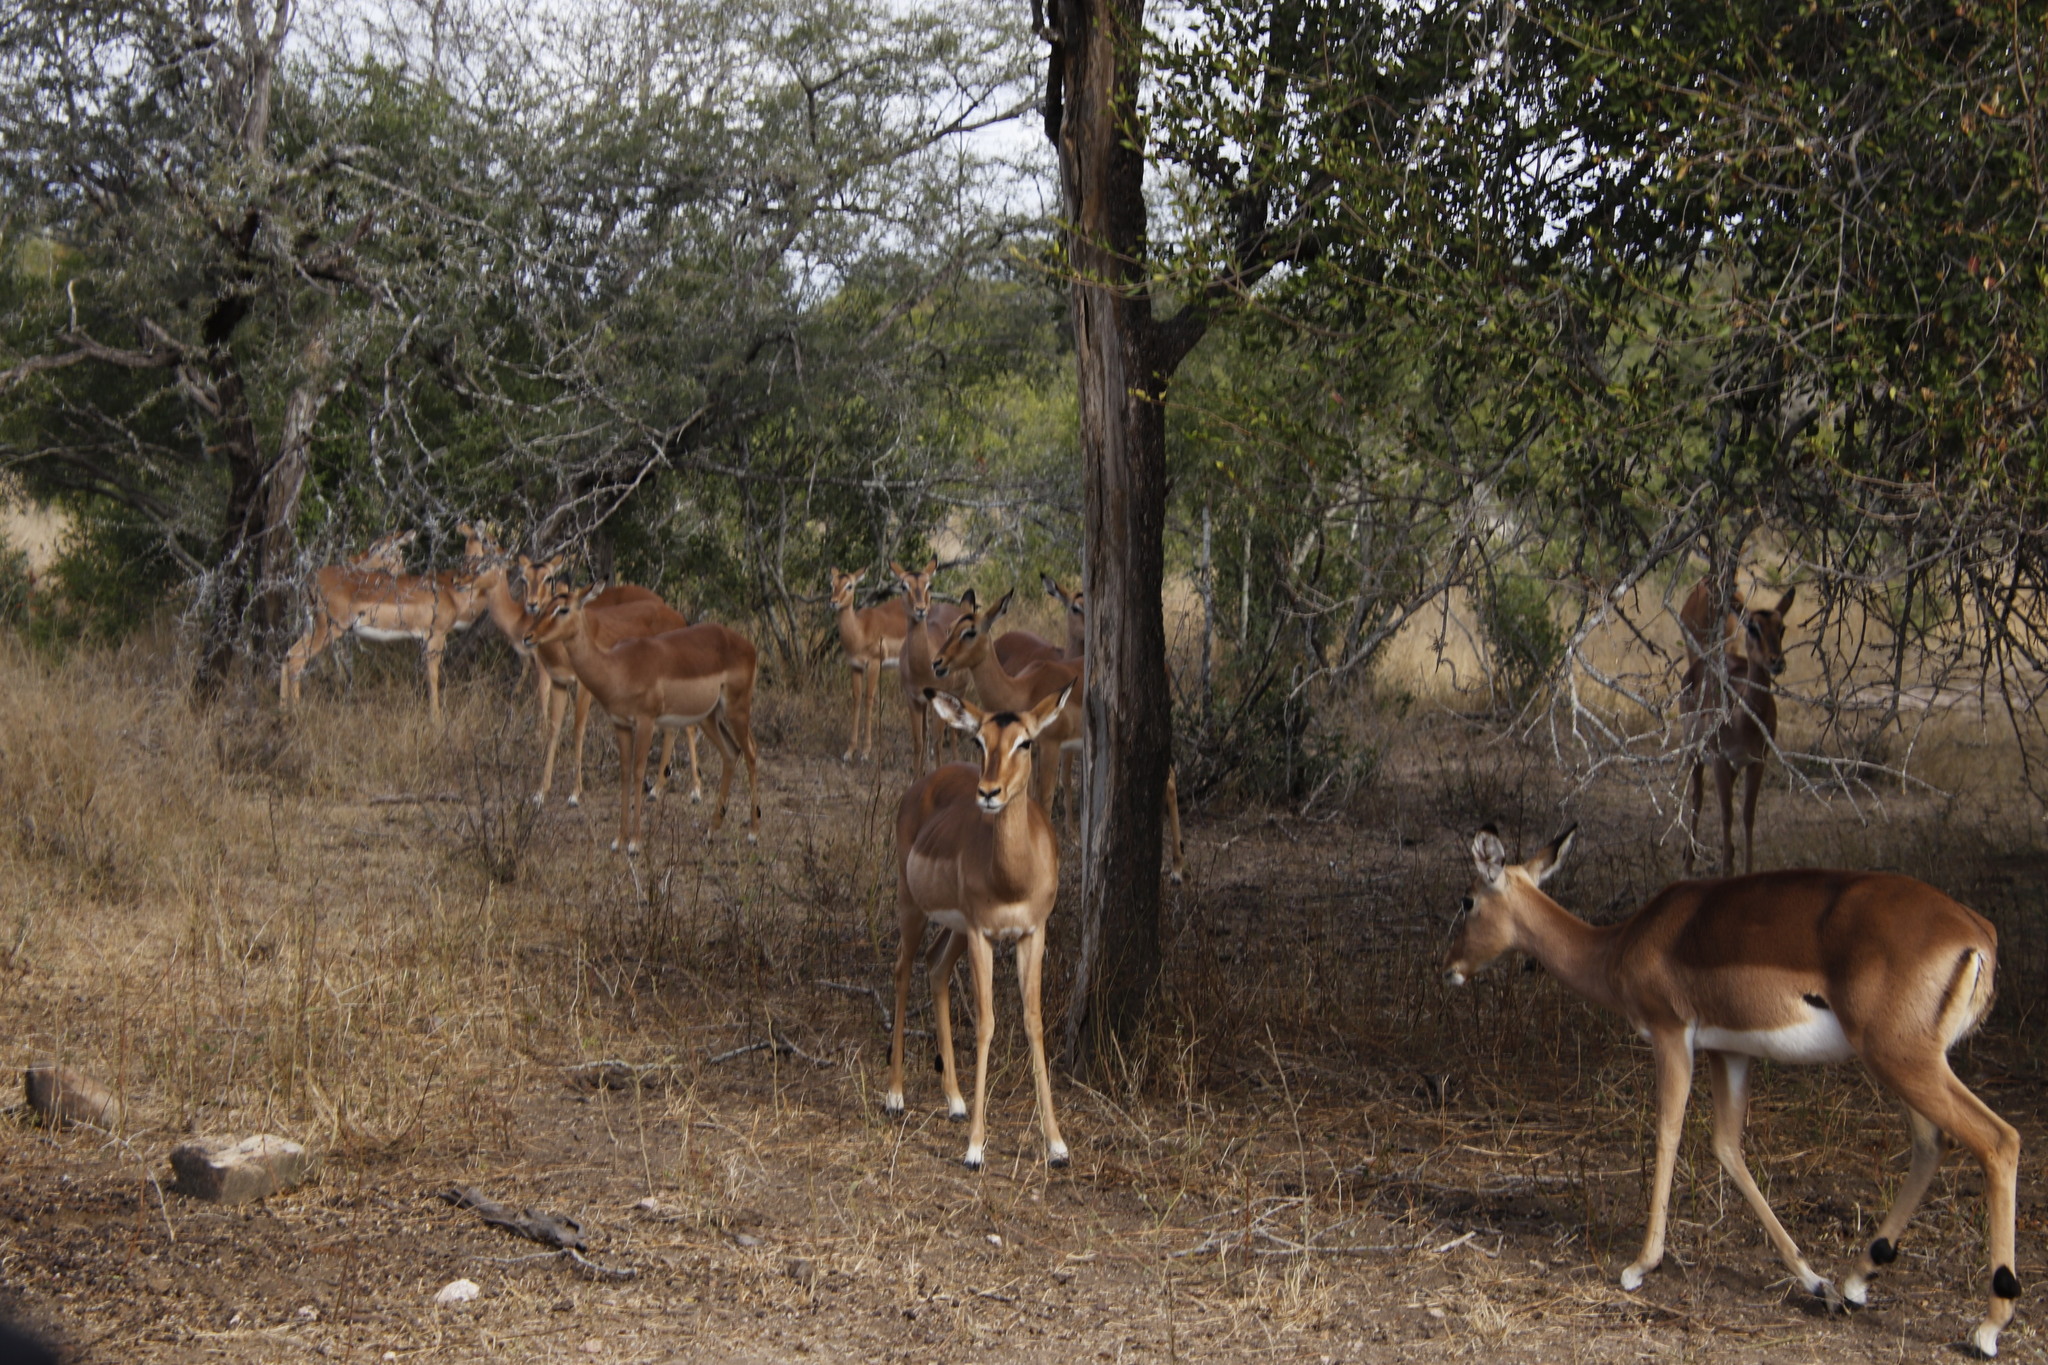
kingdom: Animalia
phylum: Chordata
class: Mammalia
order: Artiodactyla
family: Bovidae
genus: Aepyceros
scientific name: Aepyceros melampus
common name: Impala
